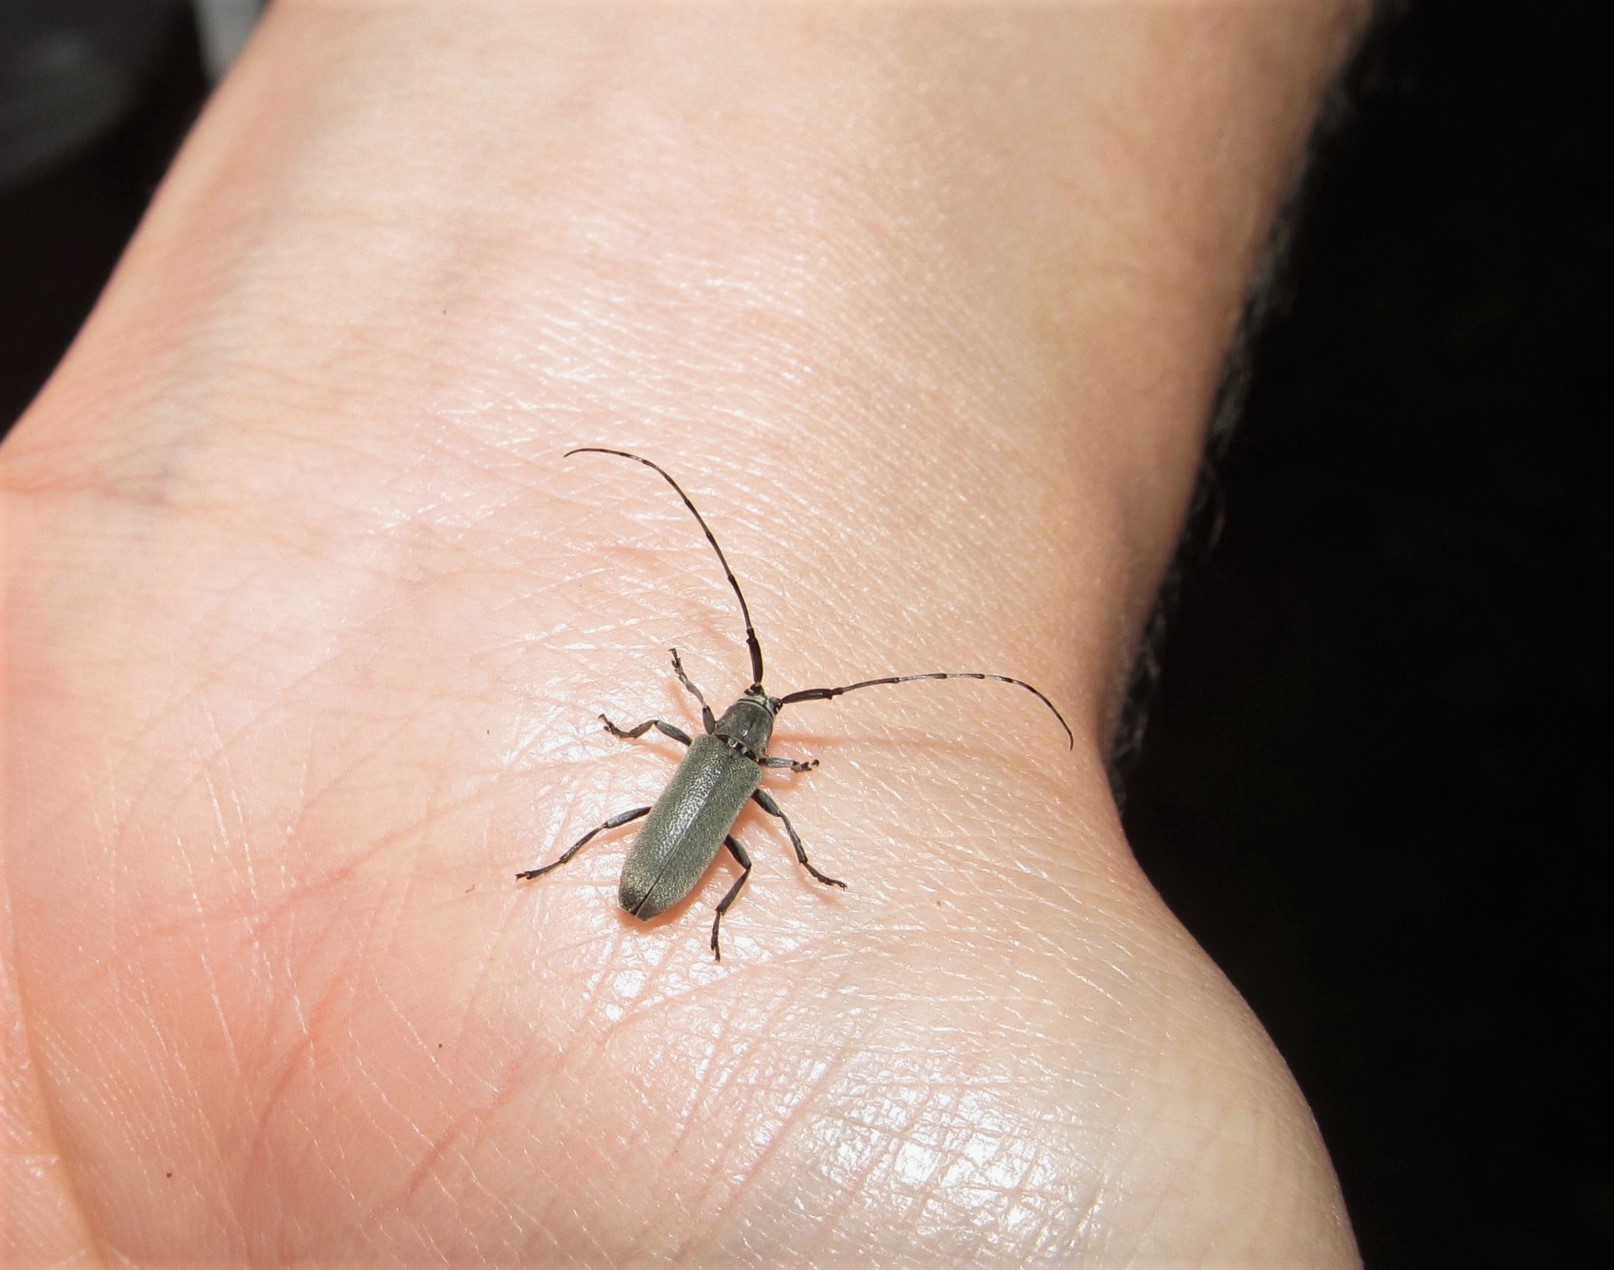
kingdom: Animalia
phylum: Arthropoda
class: Insecta
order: Coleoptera
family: Cerambycidae
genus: Dectes
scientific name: Dectes texanus
